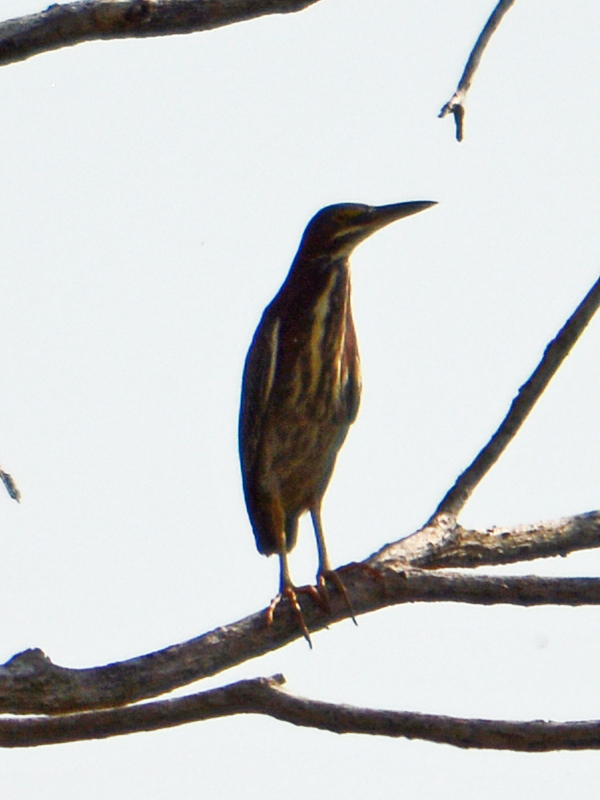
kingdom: Animalia
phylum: Chordata
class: Aves
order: Pelecaniformes
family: Ardeidae
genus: Butorides
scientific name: Butorides virescens
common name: Green heron
